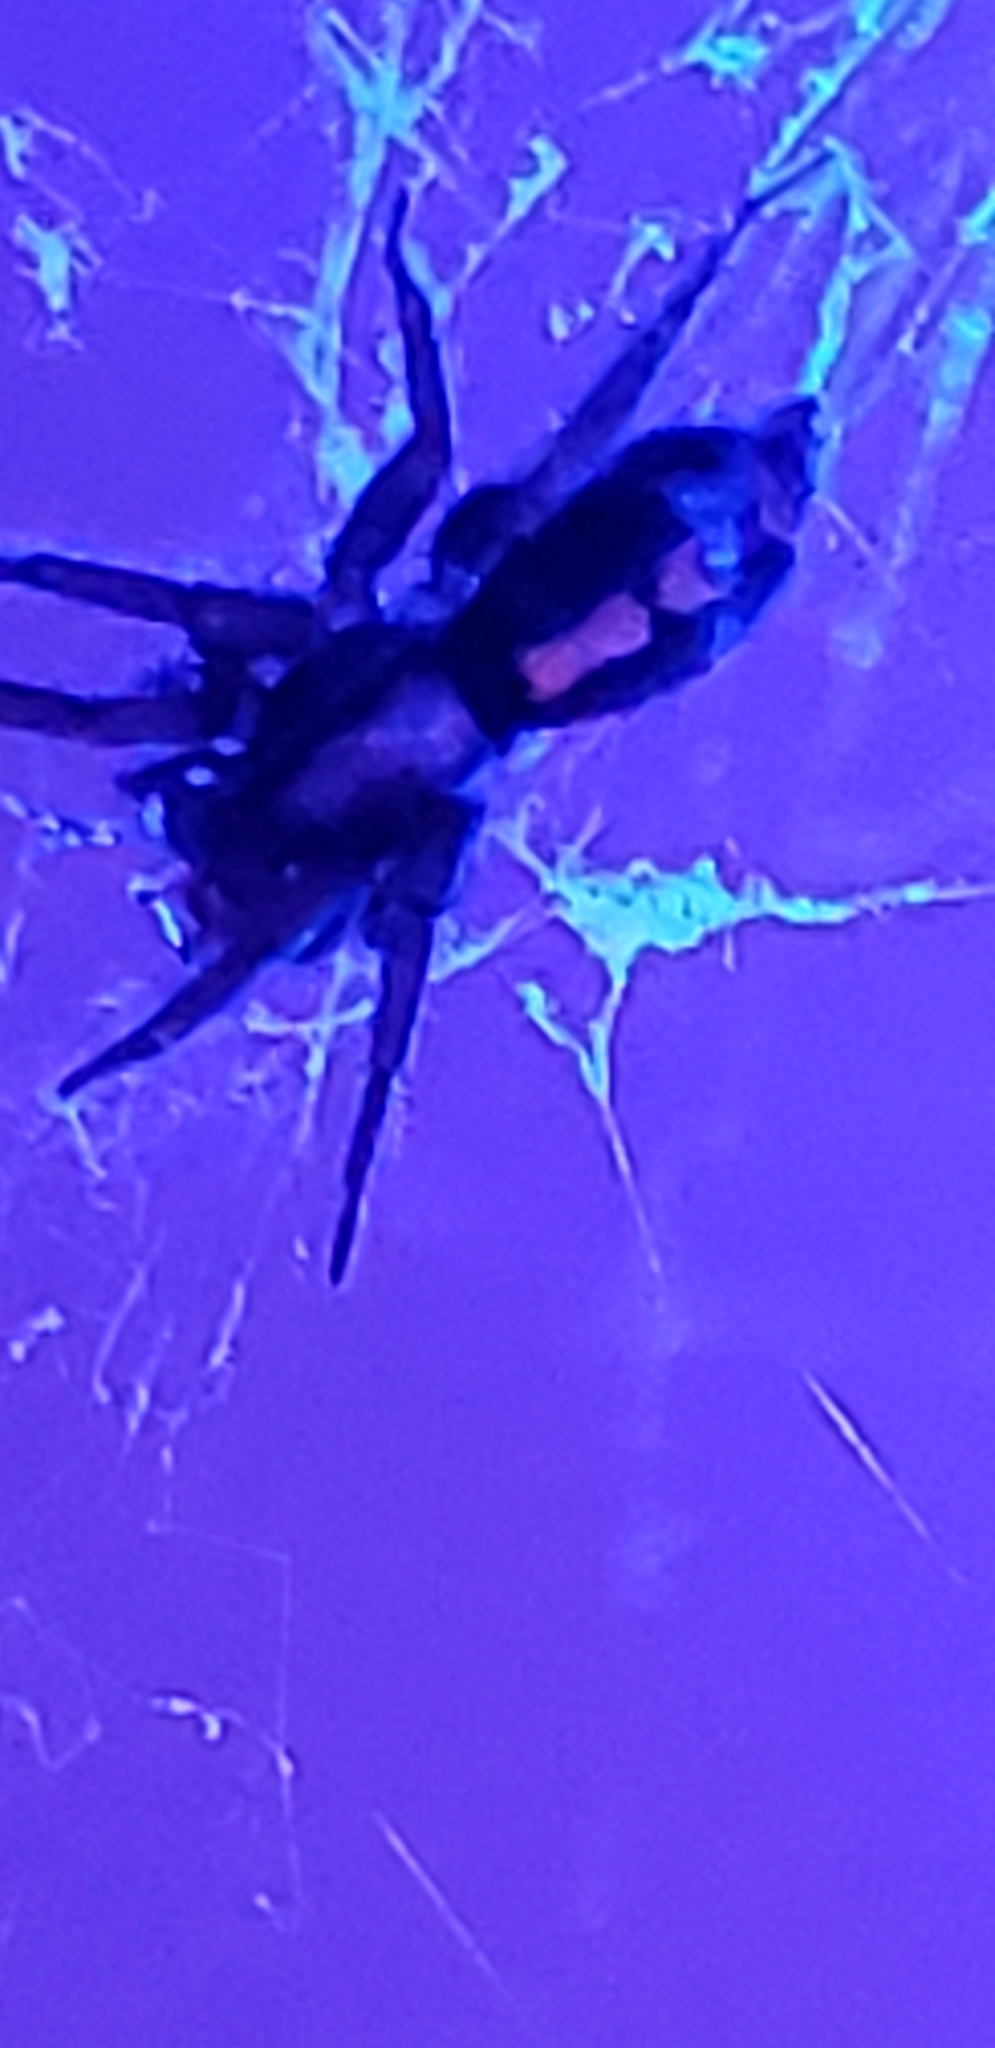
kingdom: Animalia
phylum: Arthropoda
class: Arachnida
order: Araneae
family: Gnaphosidae
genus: Herpyllus
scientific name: Herpyllus ecclesiasticus
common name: Eastern parson spider
